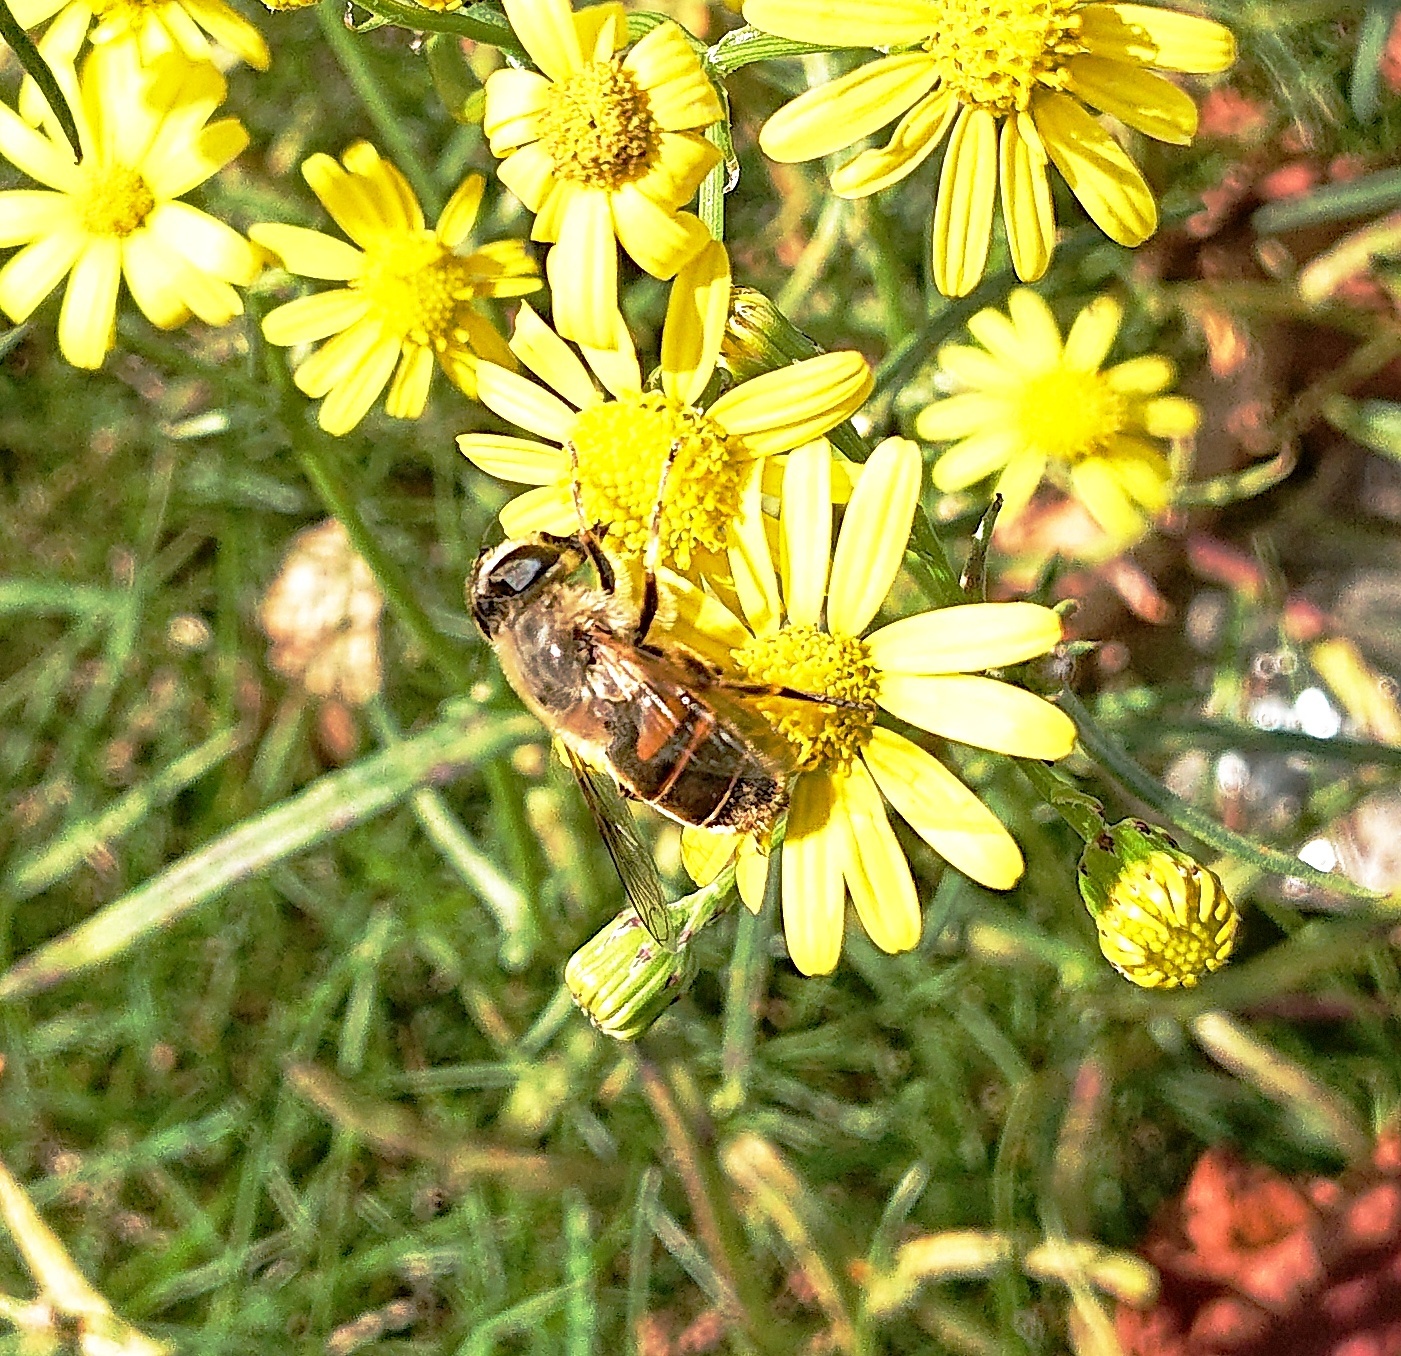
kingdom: Animalia
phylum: Arthropoda
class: Insecta
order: Diptera
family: Syrphidae
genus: Eristalis
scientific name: Eristalis tenax
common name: Drone fly
